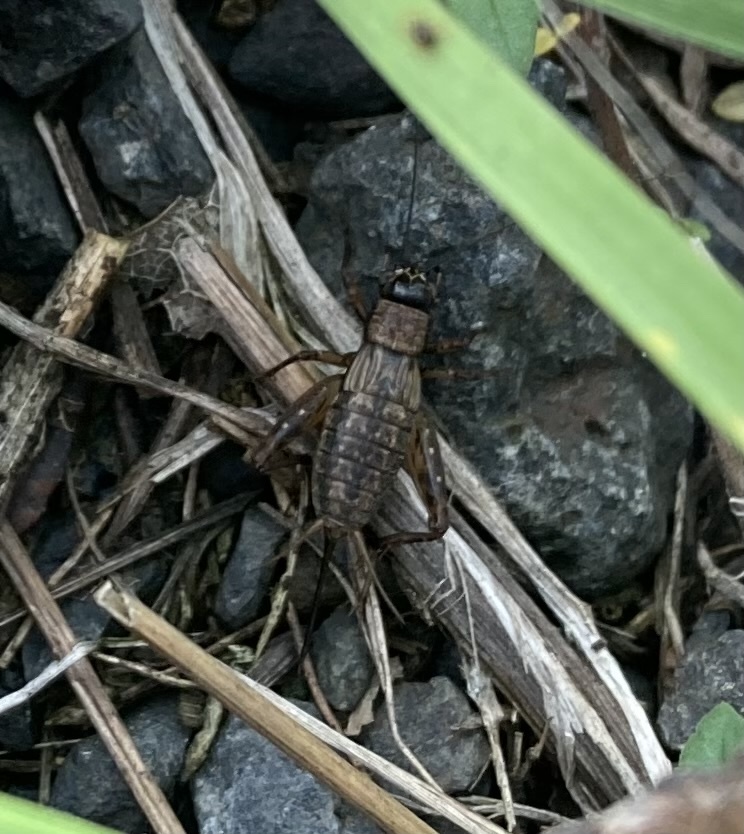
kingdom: Animalia
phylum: Arthropoda
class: Insecta
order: Orthoptera
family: Trigonidiidae
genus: Nemobius
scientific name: Nemobius sylvestris
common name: Wood-cricket
